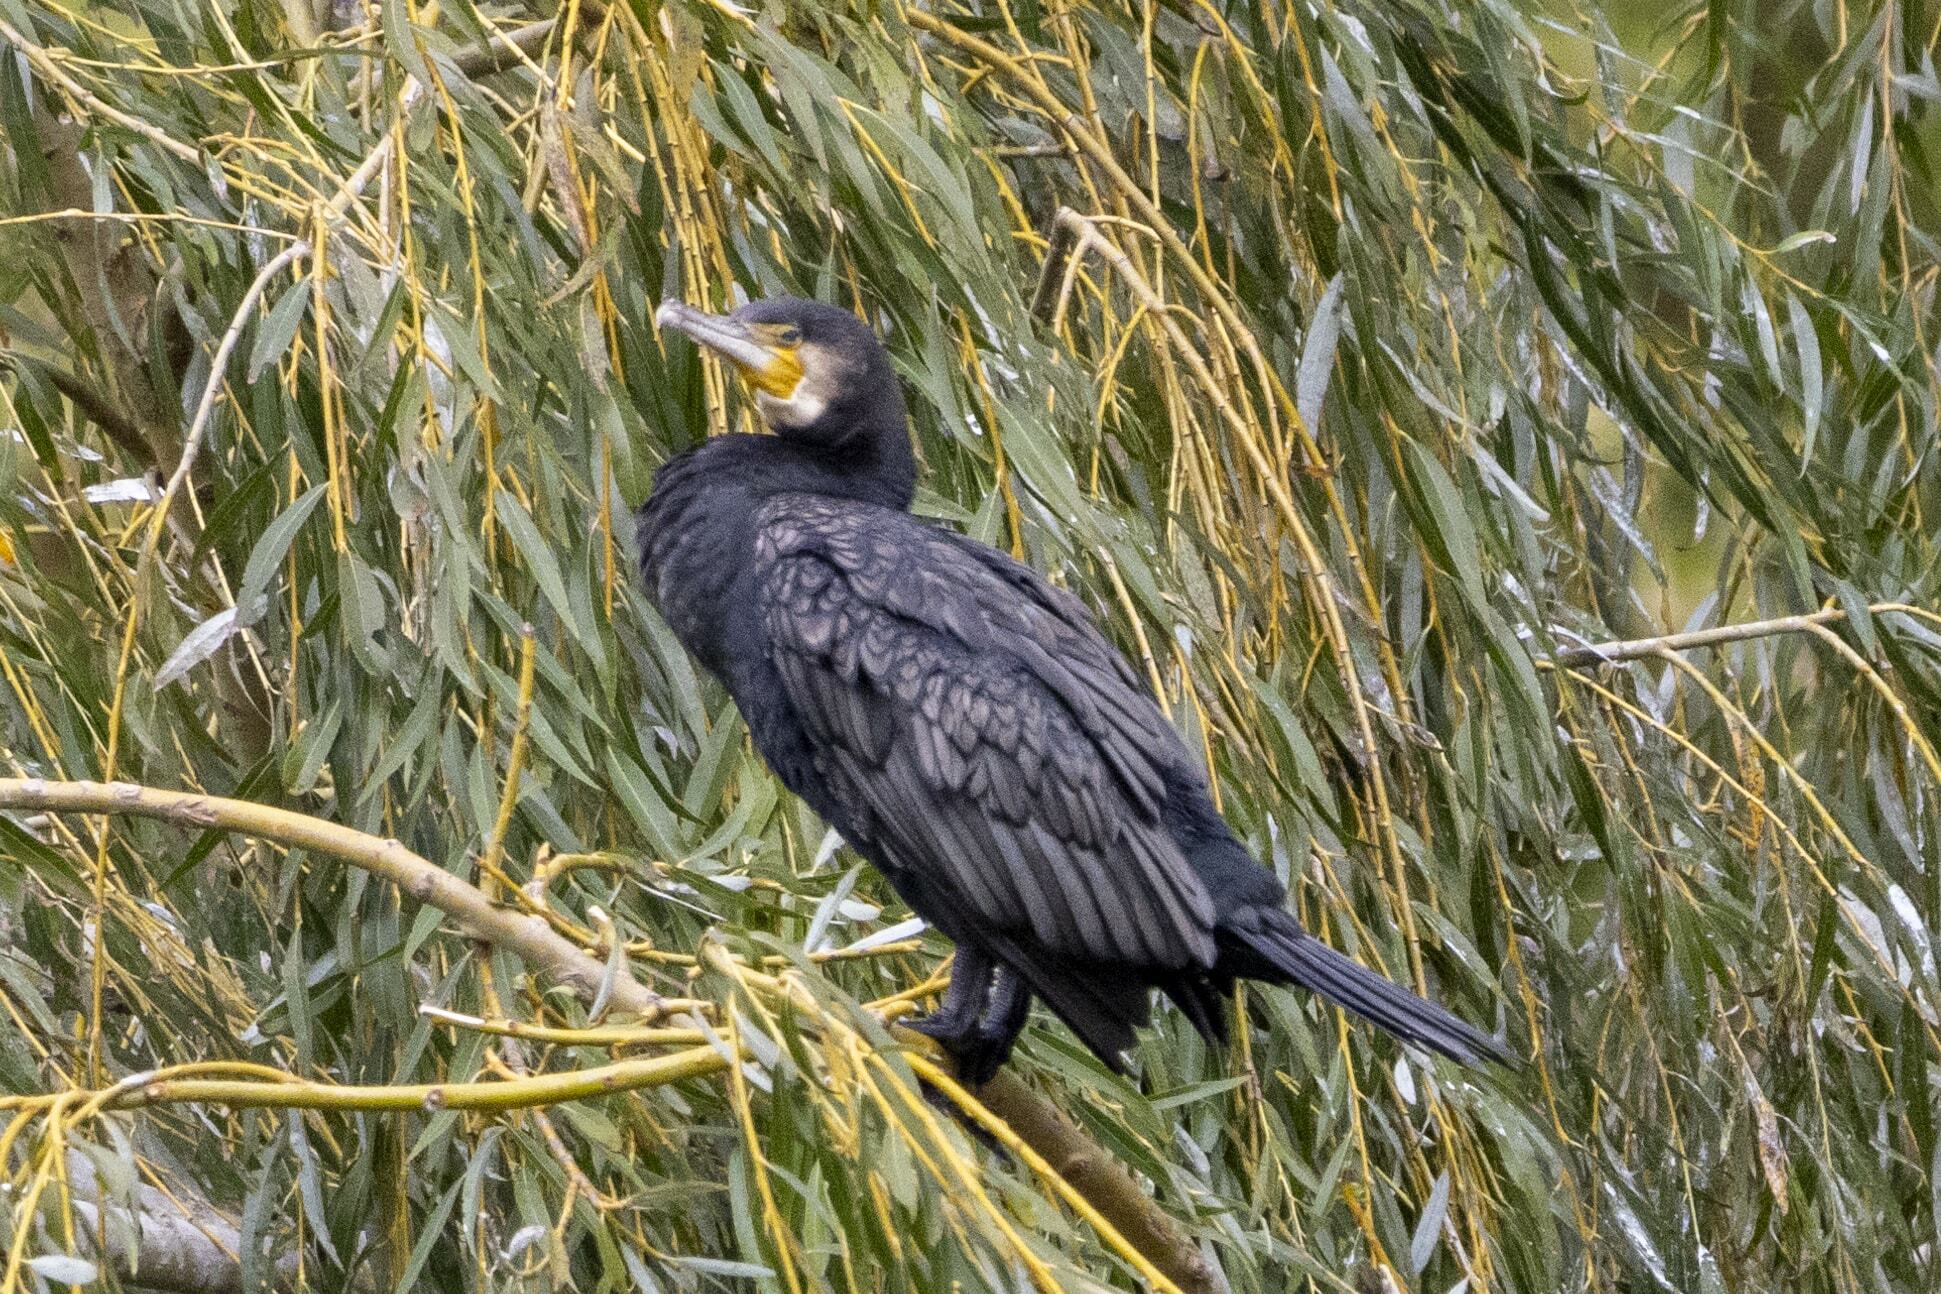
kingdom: Animalia
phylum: Chordata
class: Aves
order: Suliformes
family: Phalacrocoracidae
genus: Phalacrocorax
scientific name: Phalacrocorax carbo
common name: Great cormorant
